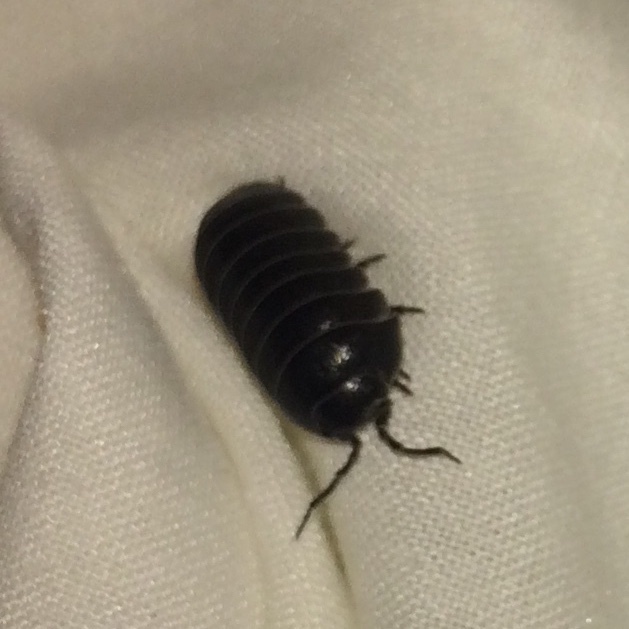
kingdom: Animalia
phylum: Arthropoda
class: Malacostraca
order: Isopoda
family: Armadillidiidae
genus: Armadillidium
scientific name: Armadillidium vulgare
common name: Common pill woodlouse
